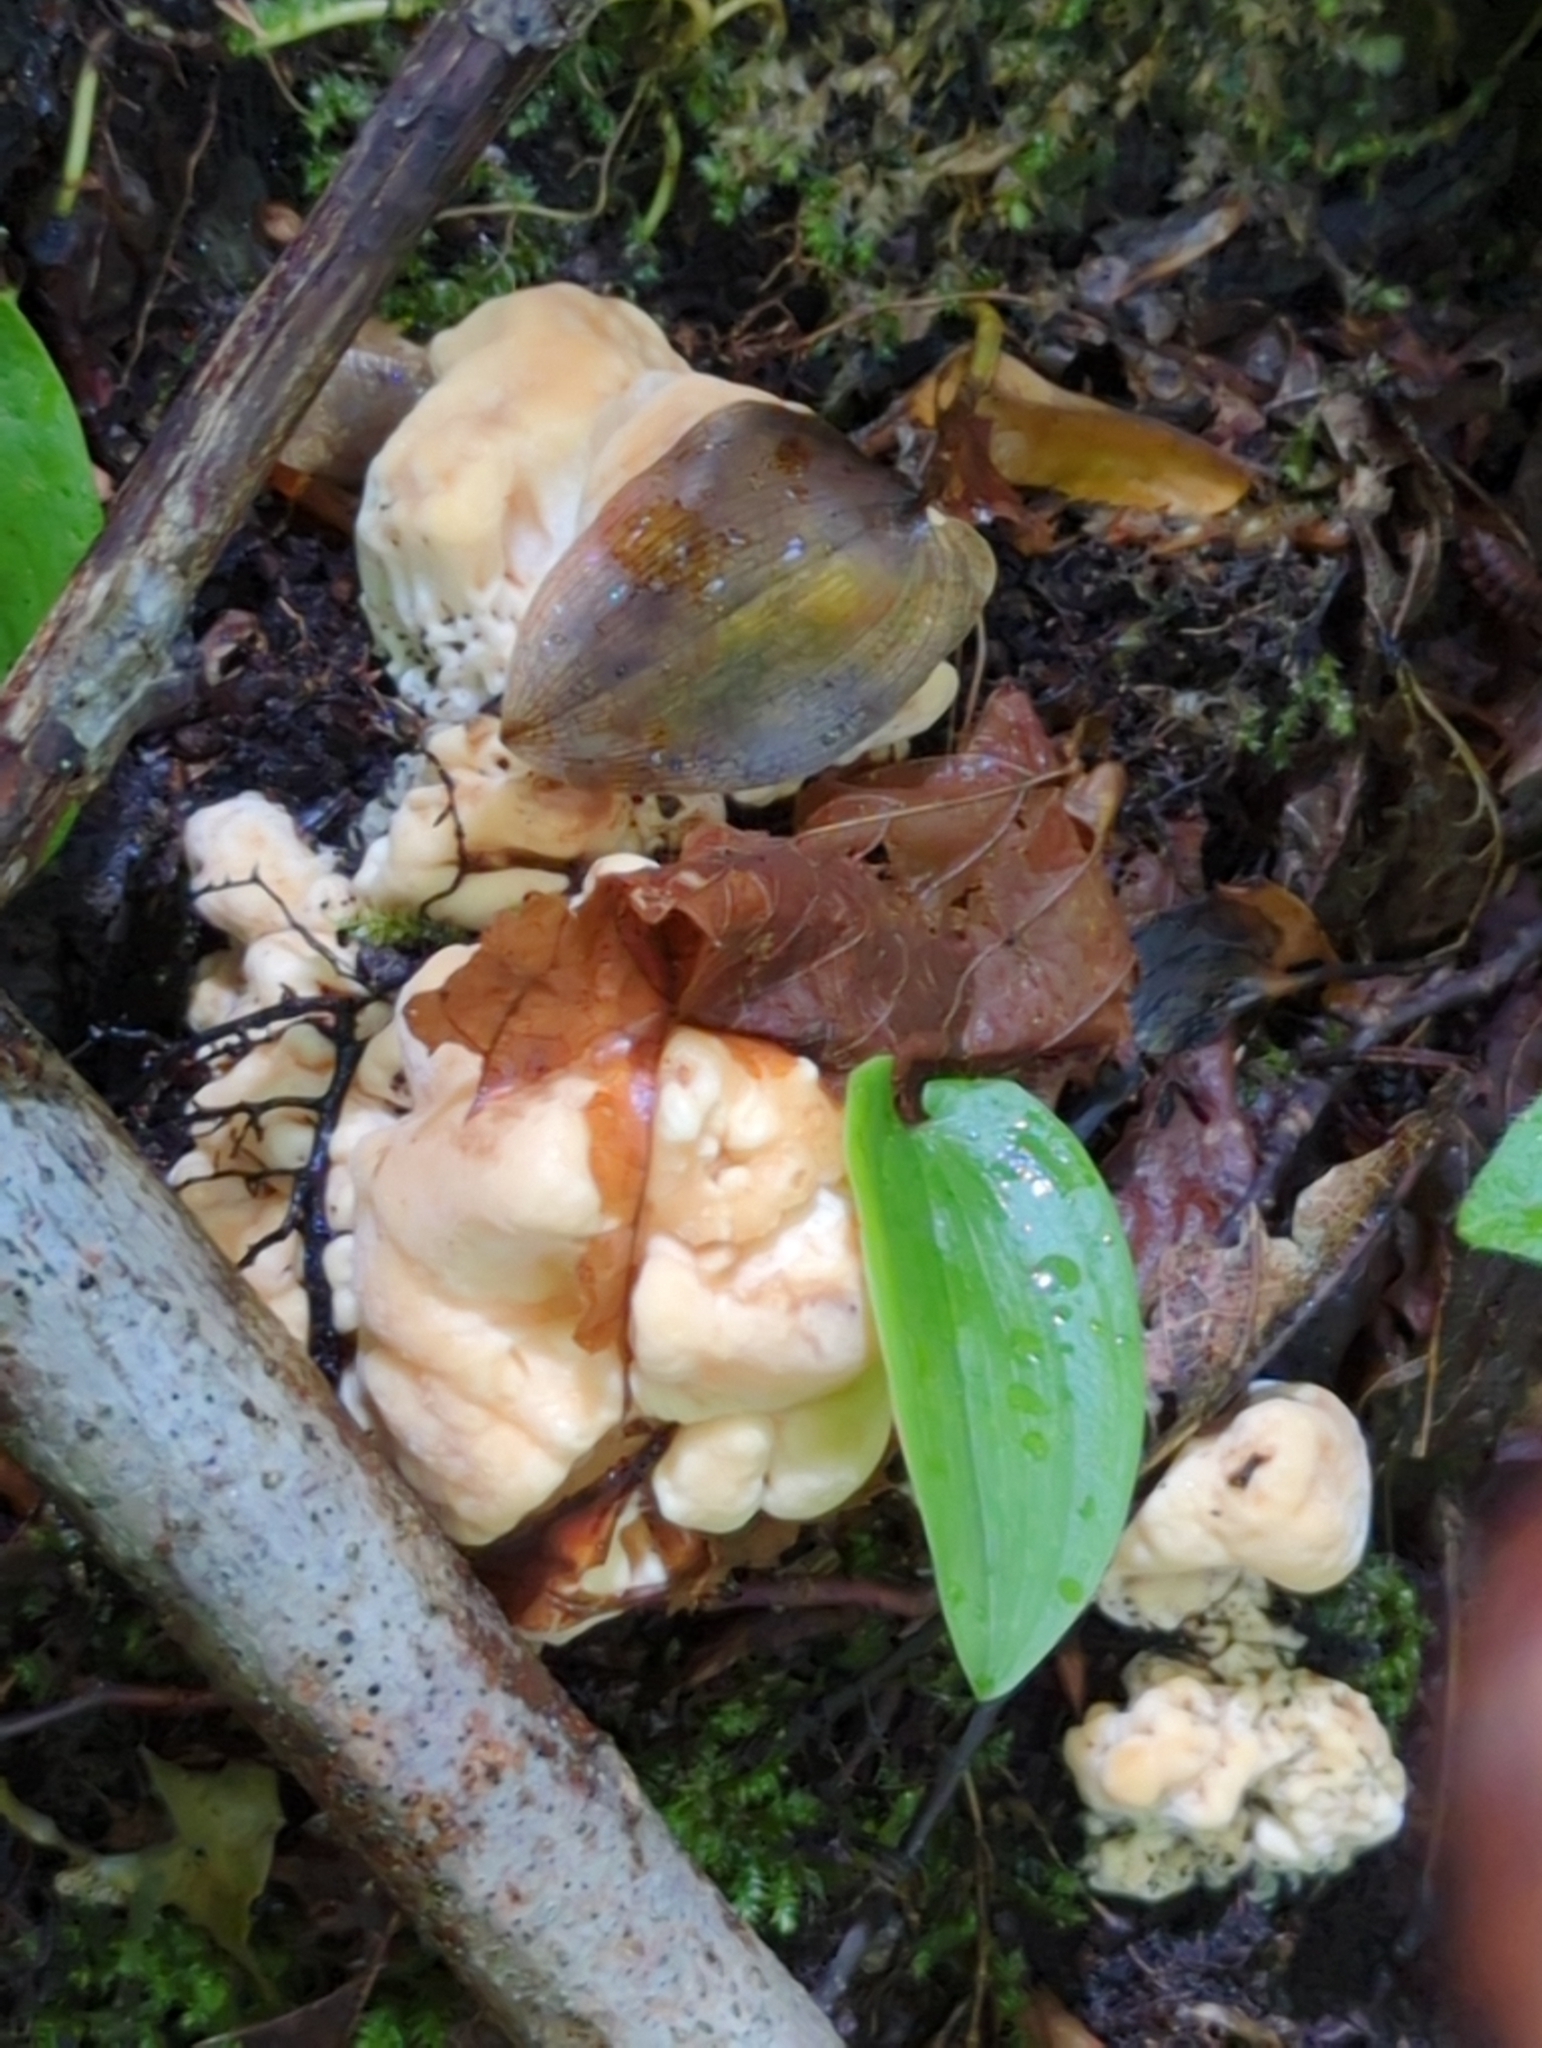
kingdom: Fungi
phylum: Basidiomycota
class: Agaricomycetes
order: Polyporales
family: Meripilaceae
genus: Meripilus
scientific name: Meripilus sumstinei
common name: Black-staining polypore
